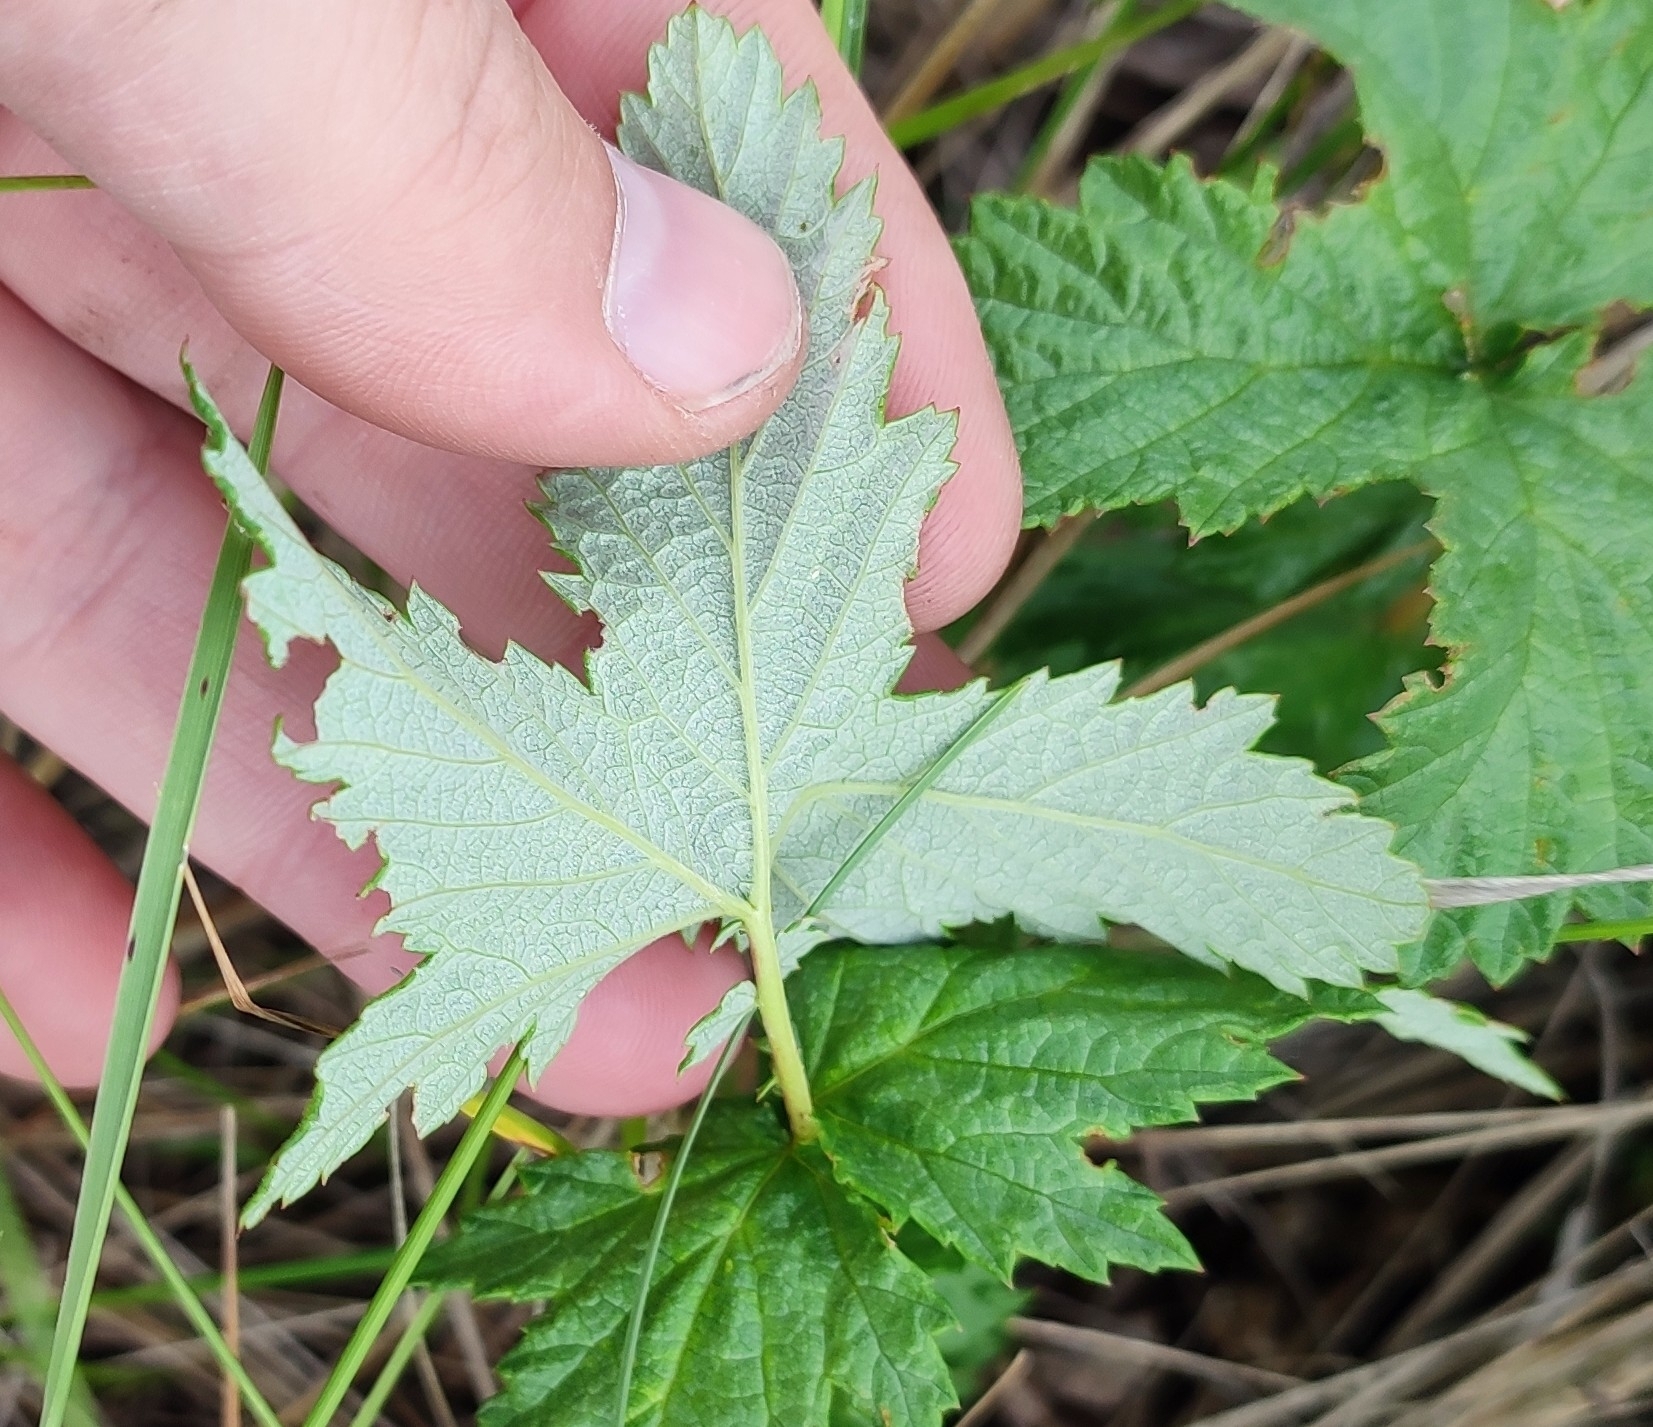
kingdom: Plantae
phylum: Tracheophyta
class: Magnoliopsida
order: Rosales
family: Rosaceae
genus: Filipendula
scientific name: Filipendula ulmaria
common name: Meadowsweet
